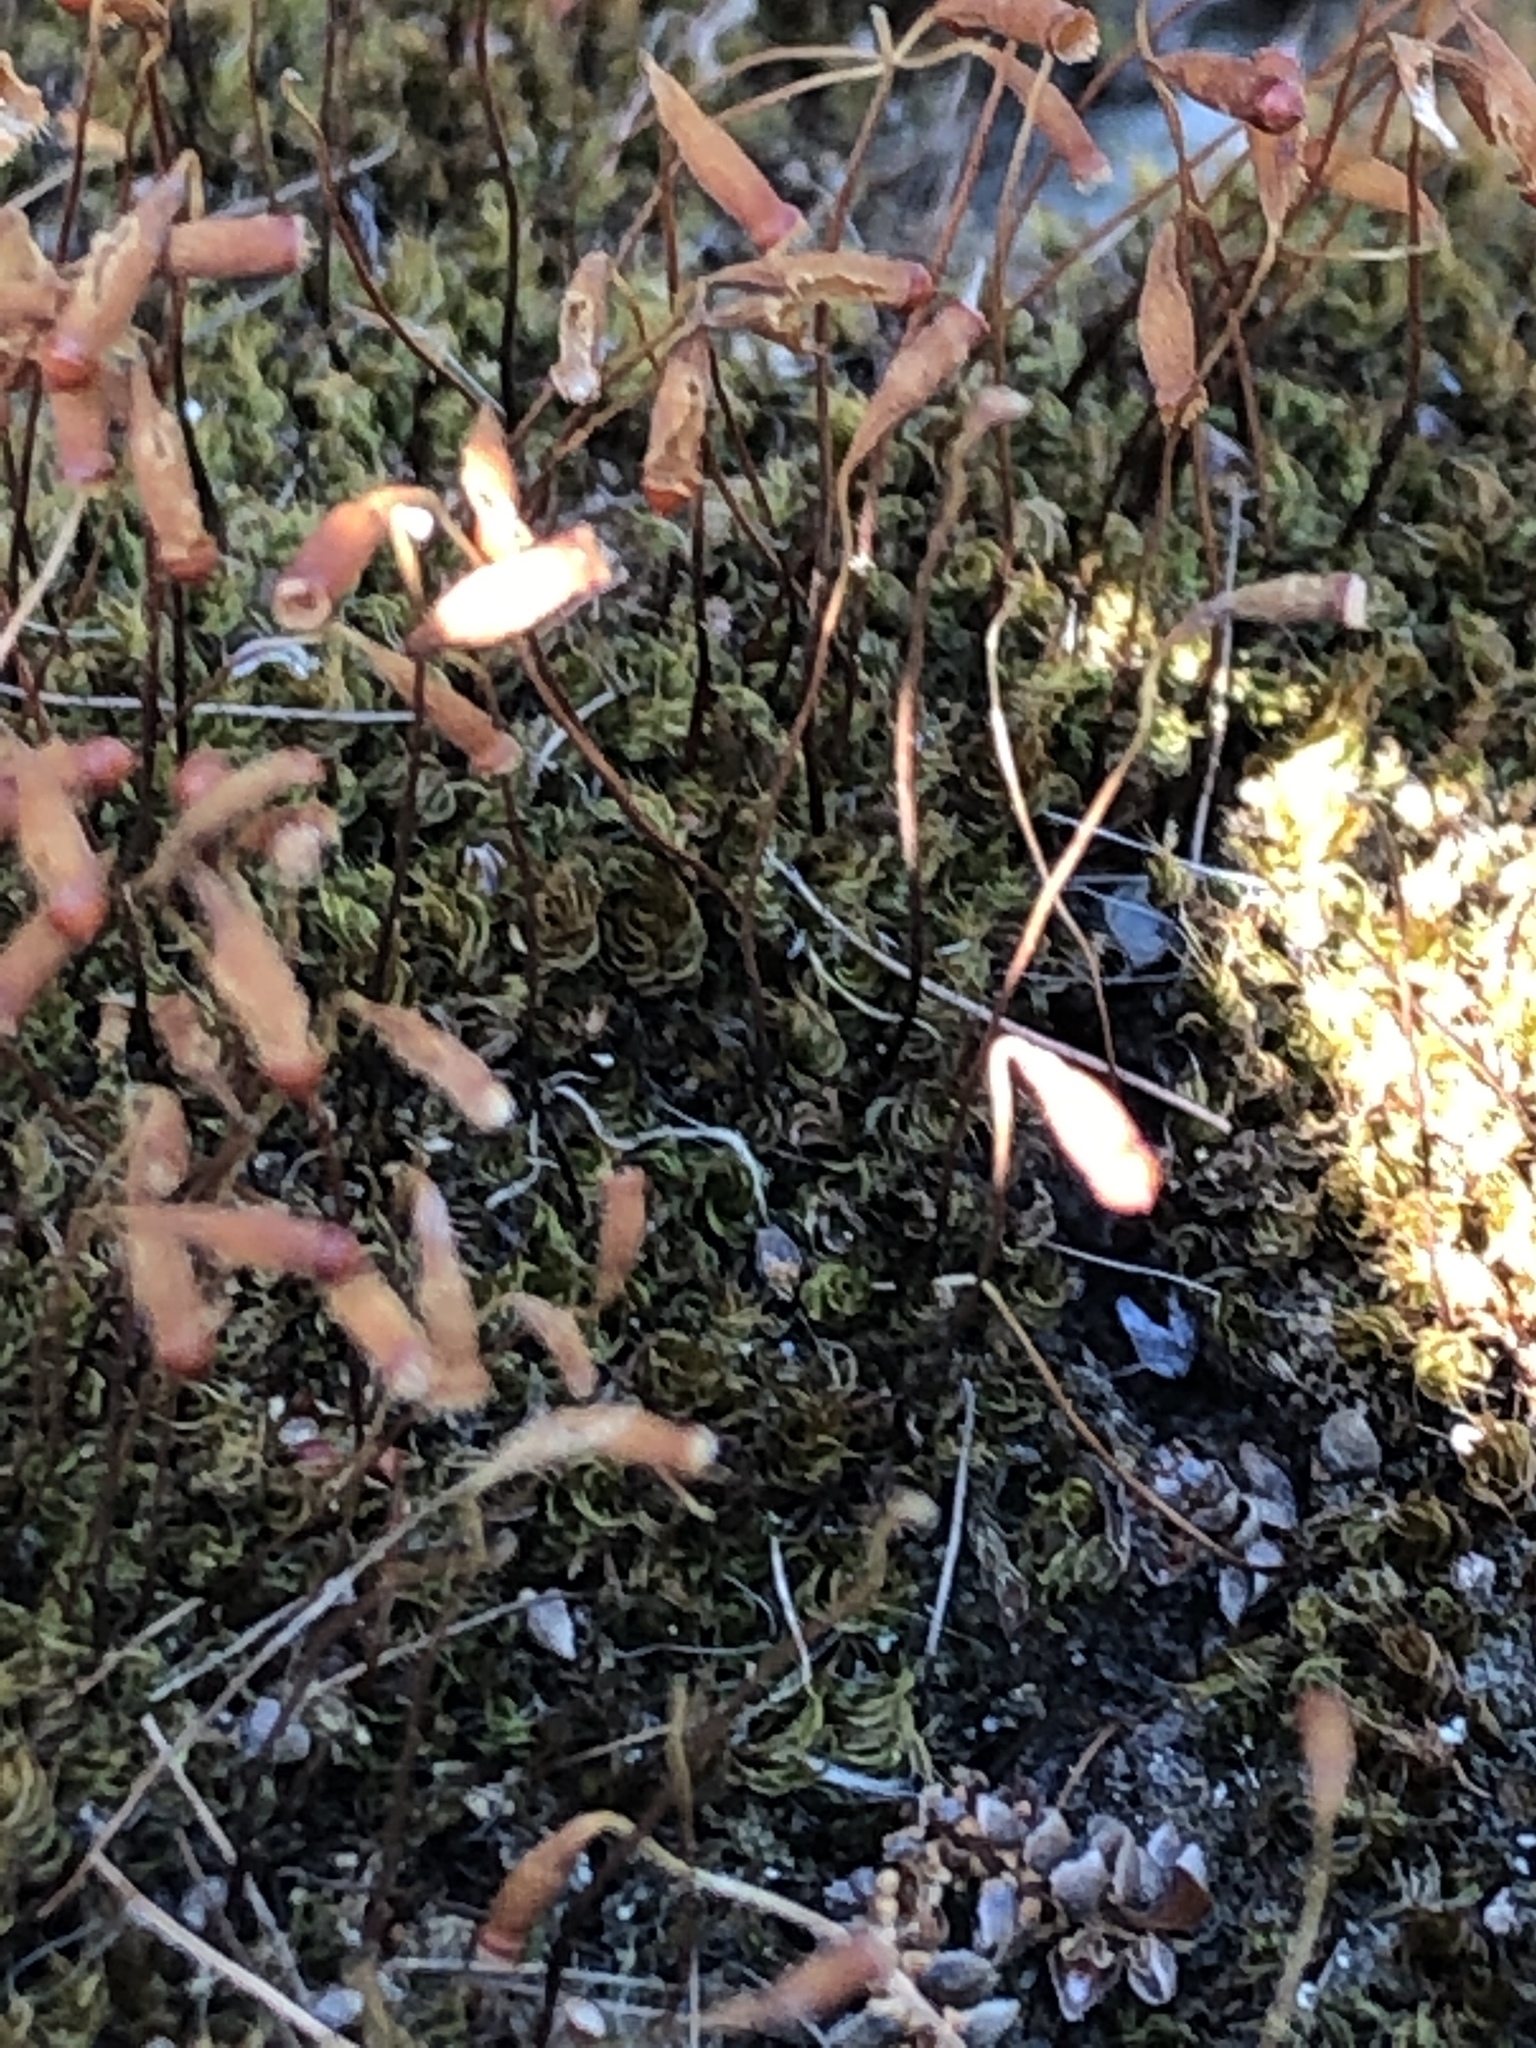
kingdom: Plantae
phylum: Bryophyta
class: Bryopsida
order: Bryales
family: Bryaceae
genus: Rosulabryum
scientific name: Rosulabryum capillare
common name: Capillary thread-moss
